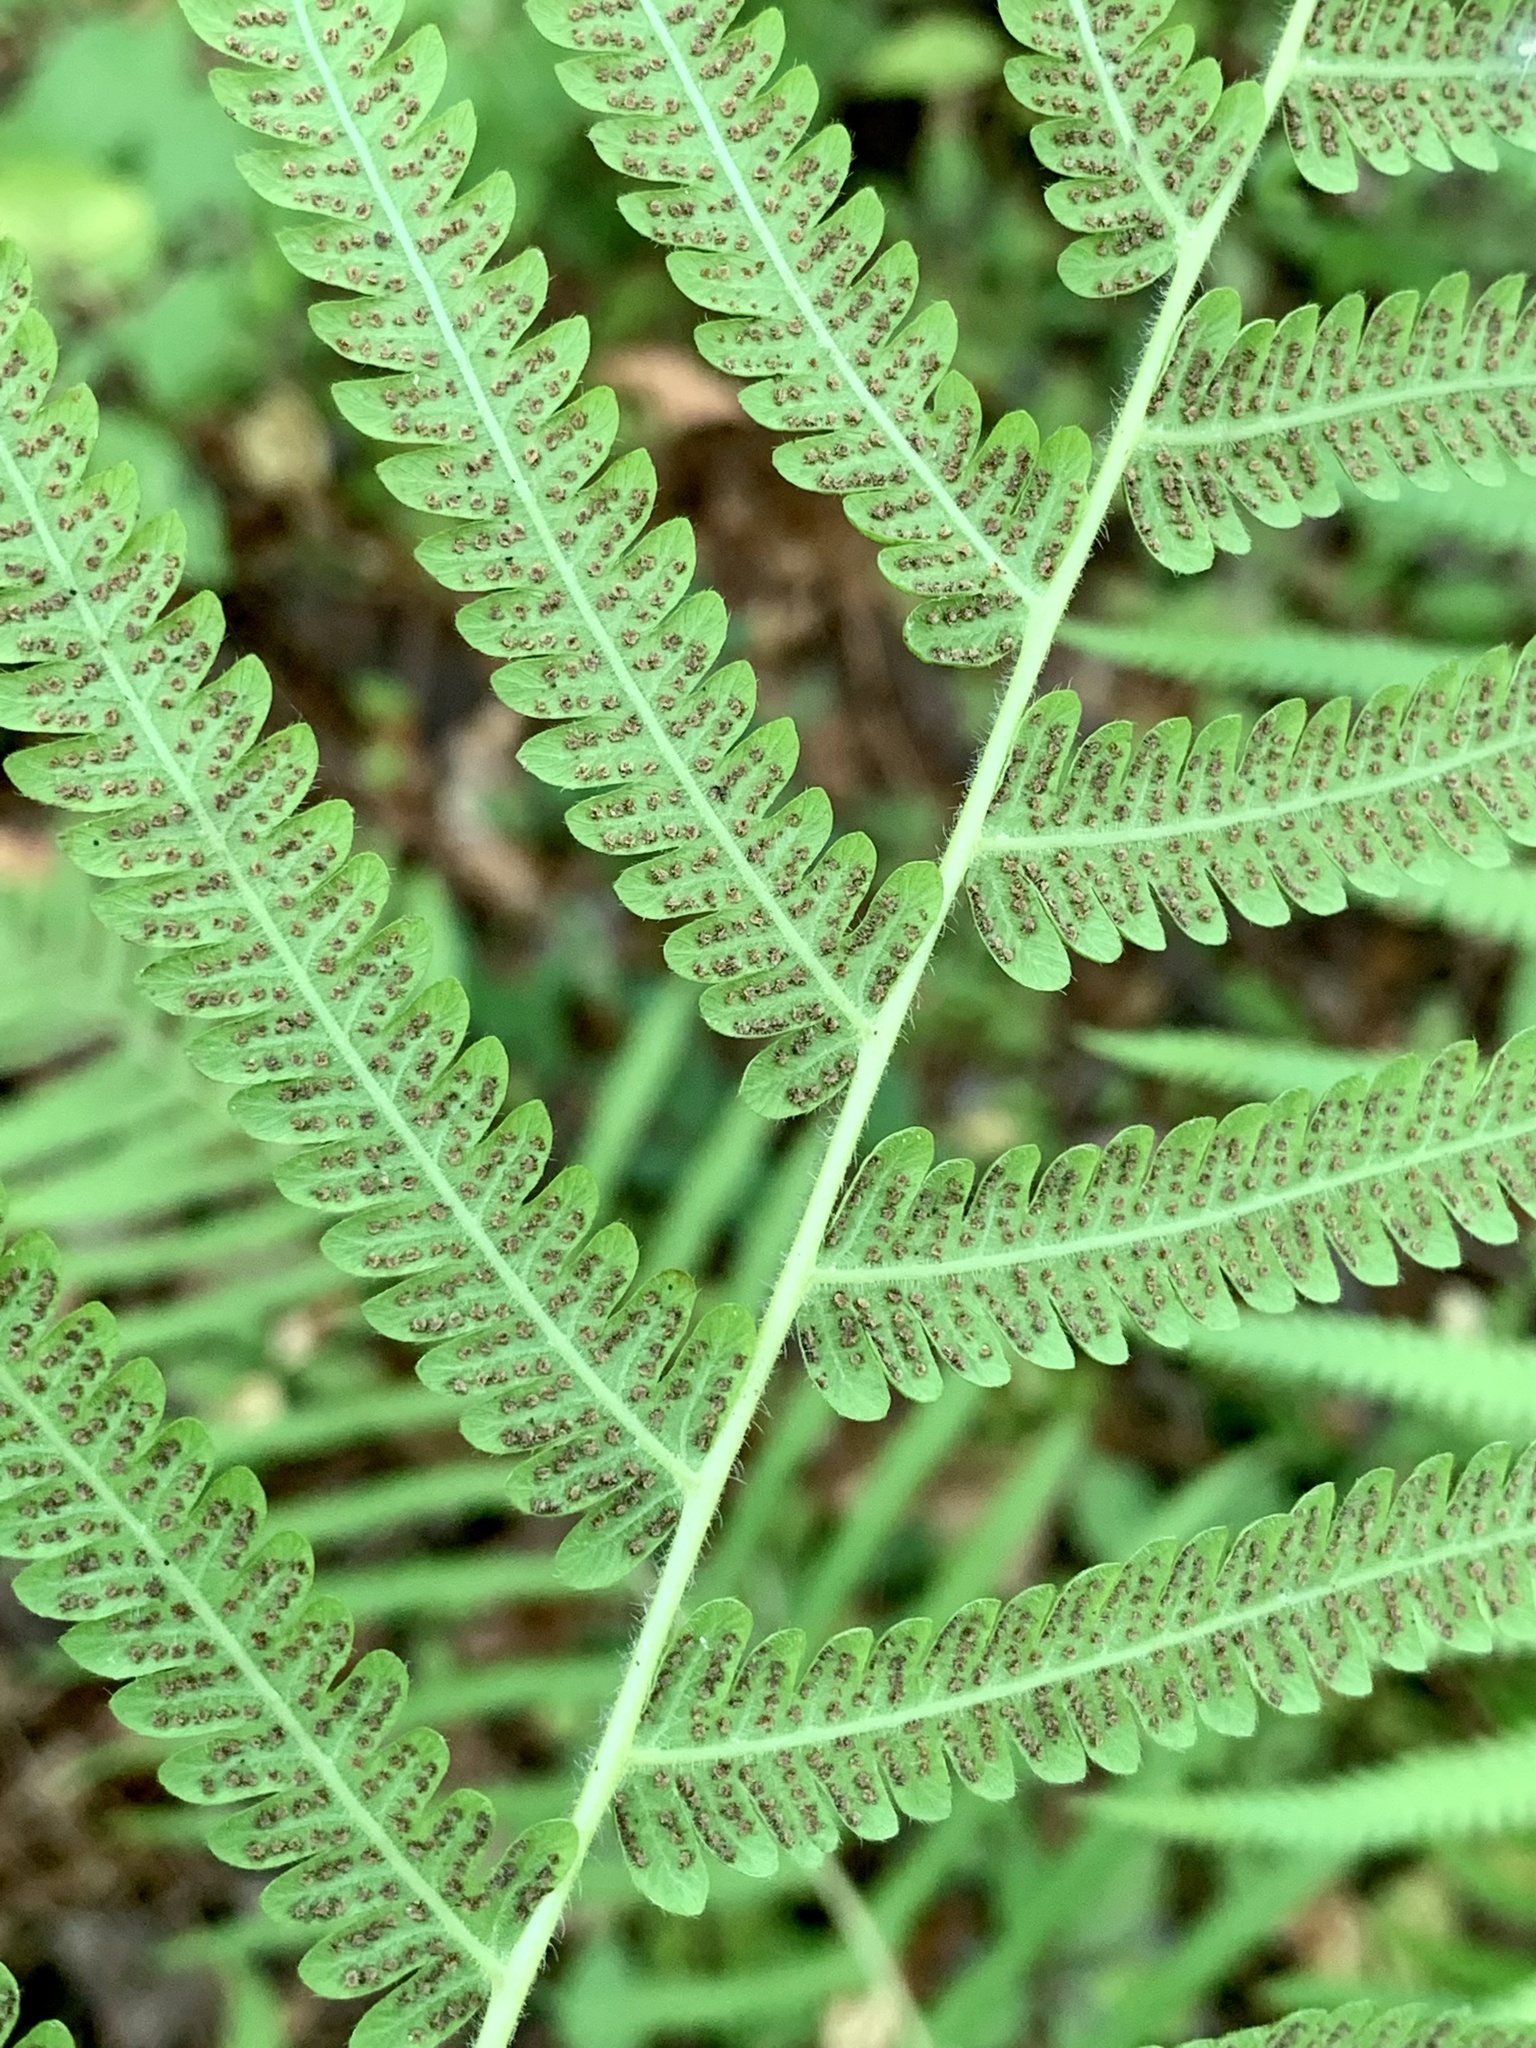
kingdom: Plantae
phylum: Tracheophyta
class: Polypodiopsida
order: Polypodiales
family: Thelypteridaceae
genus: Pelazoneuron
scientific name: Pelazoneuron kunthii
